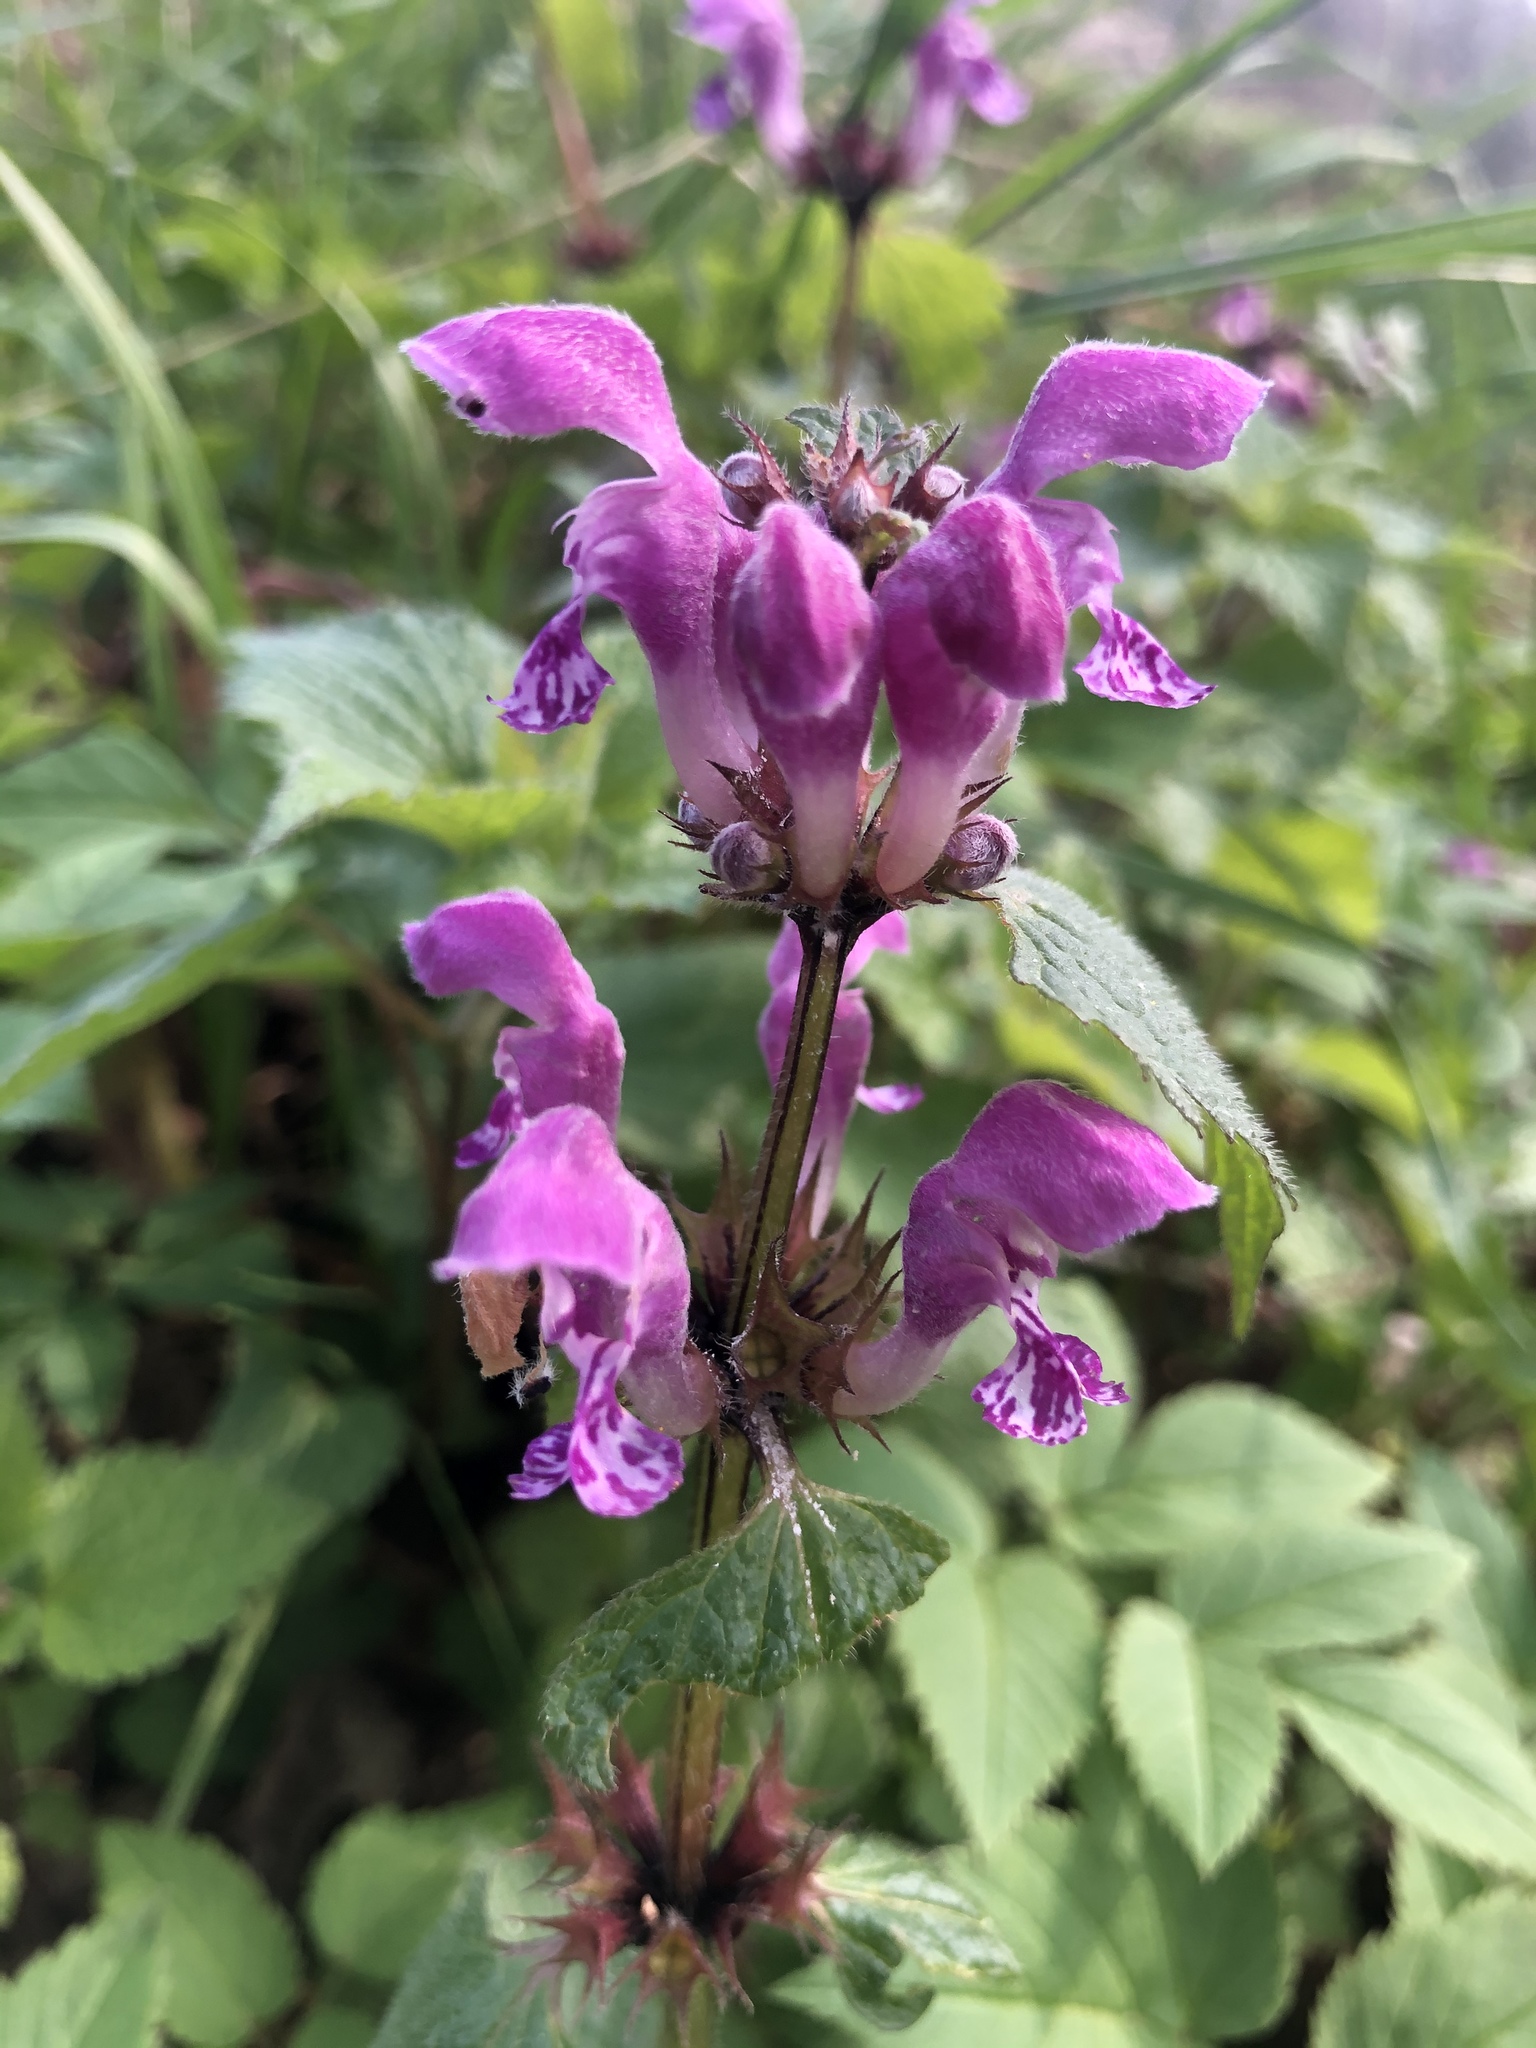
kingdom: Plantae
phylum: Tracheophyta
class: Magnoliopsida
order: Lamiales
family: Lamiaceae
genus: Lamium
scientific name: Lamium maculatum
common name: Spotted dead-nettle
